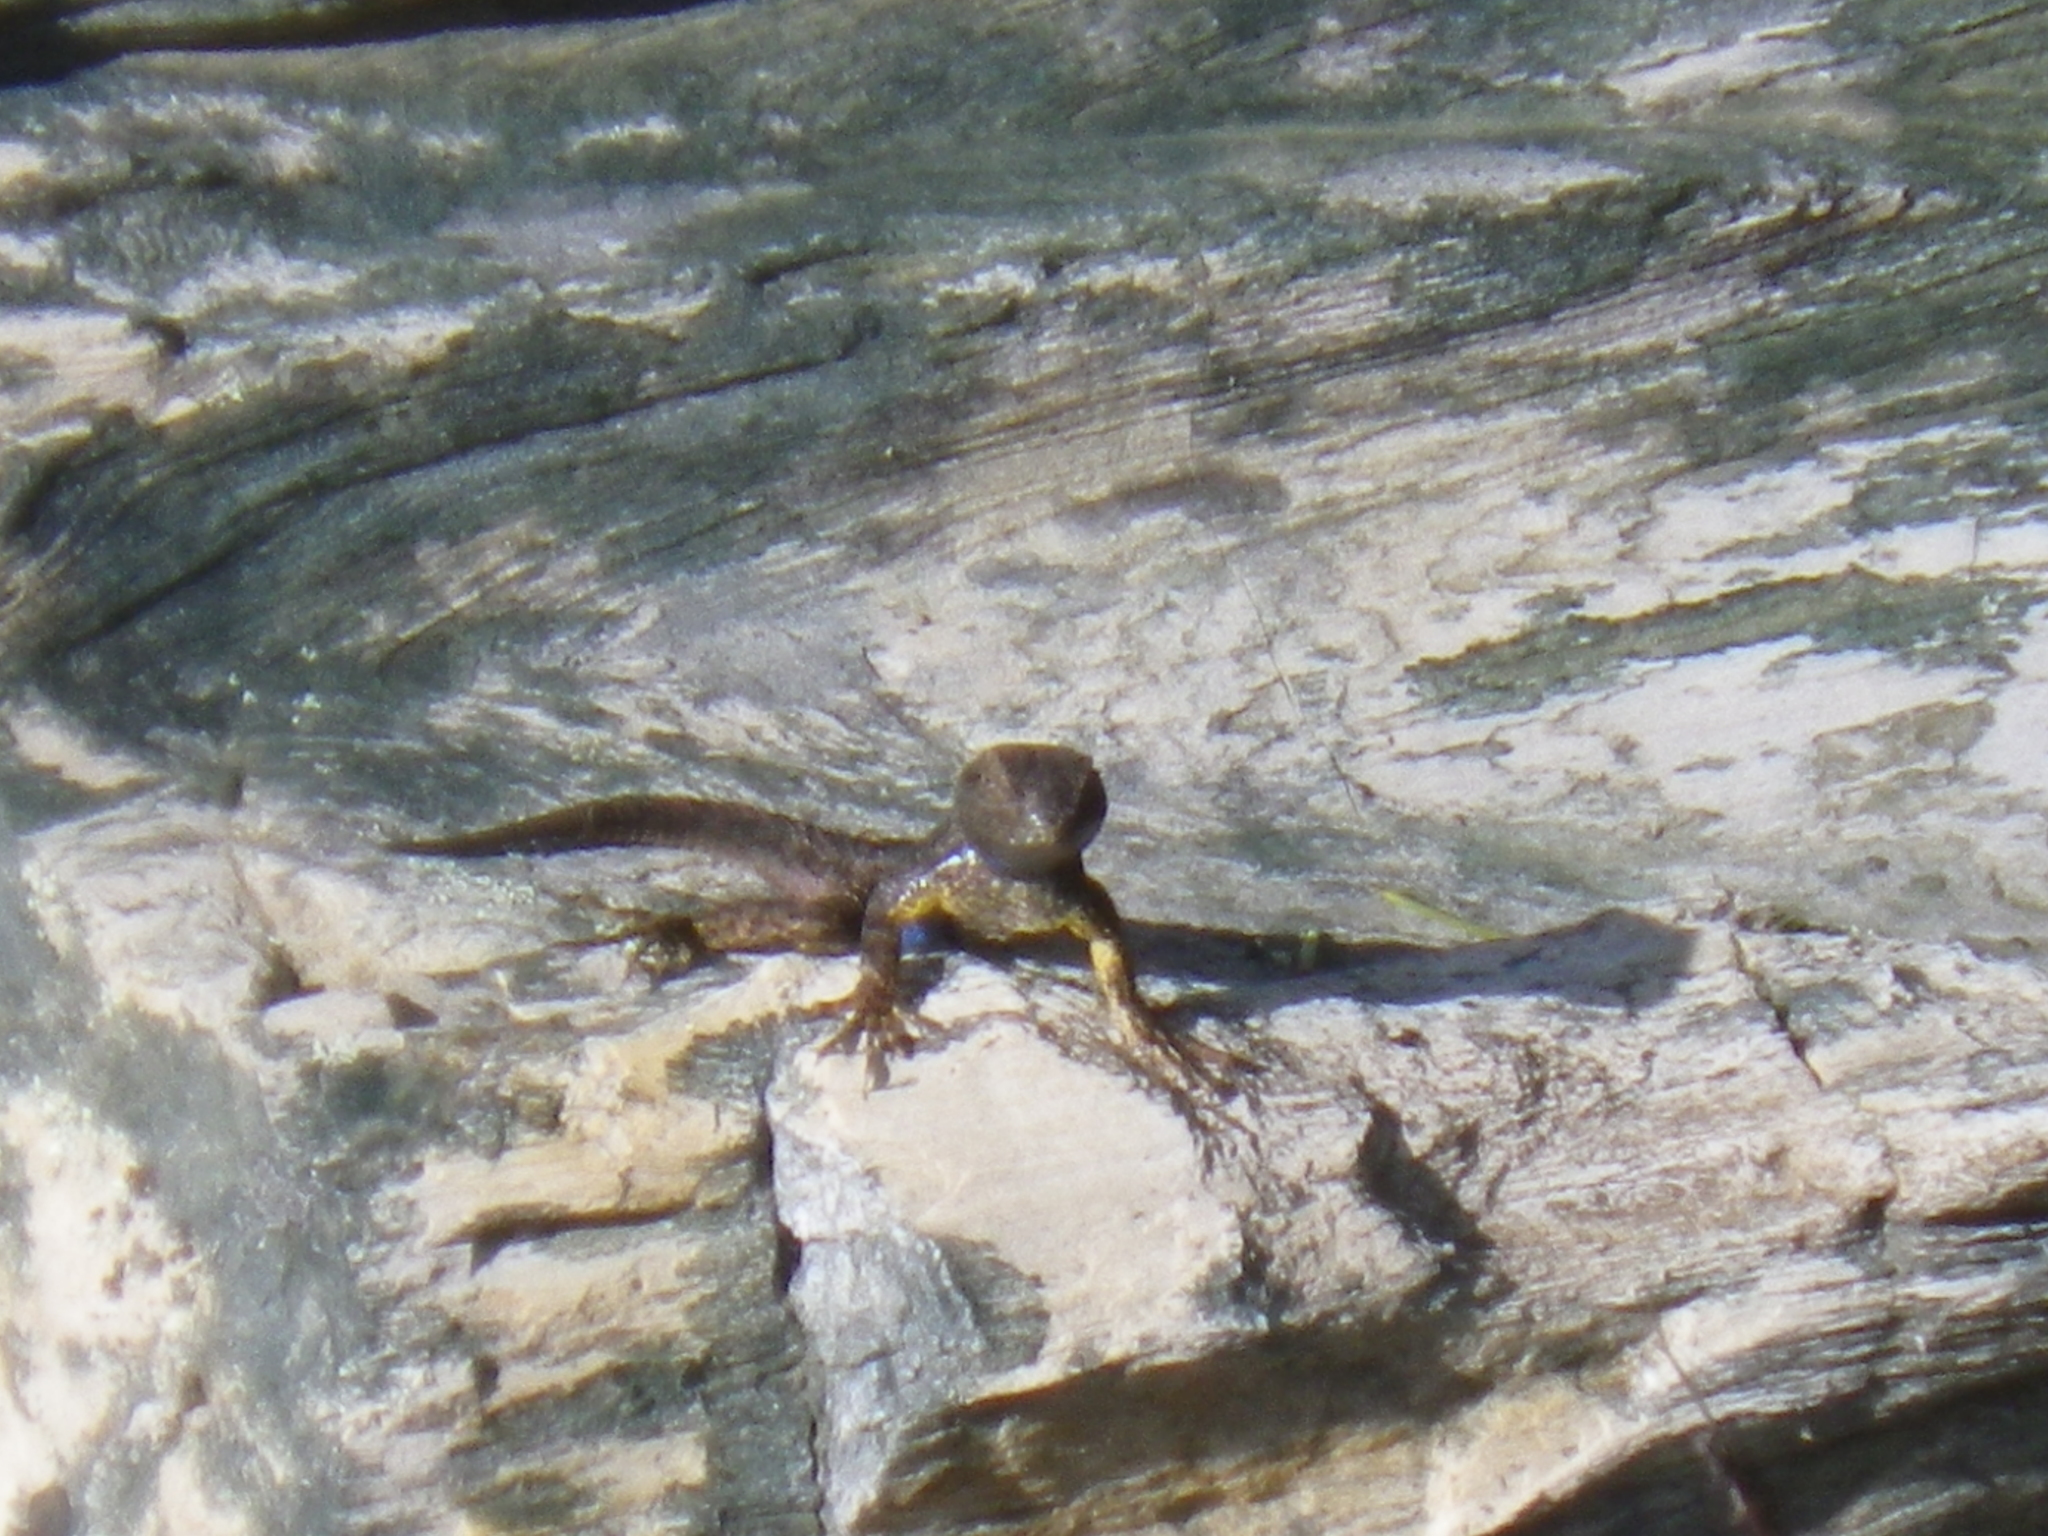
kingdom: Animalia
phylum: Chordata
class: Squamata
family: Phrynosomatidae
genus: Sceloporus
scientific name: Sceloporus occidentalis
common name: Western fence lizard
